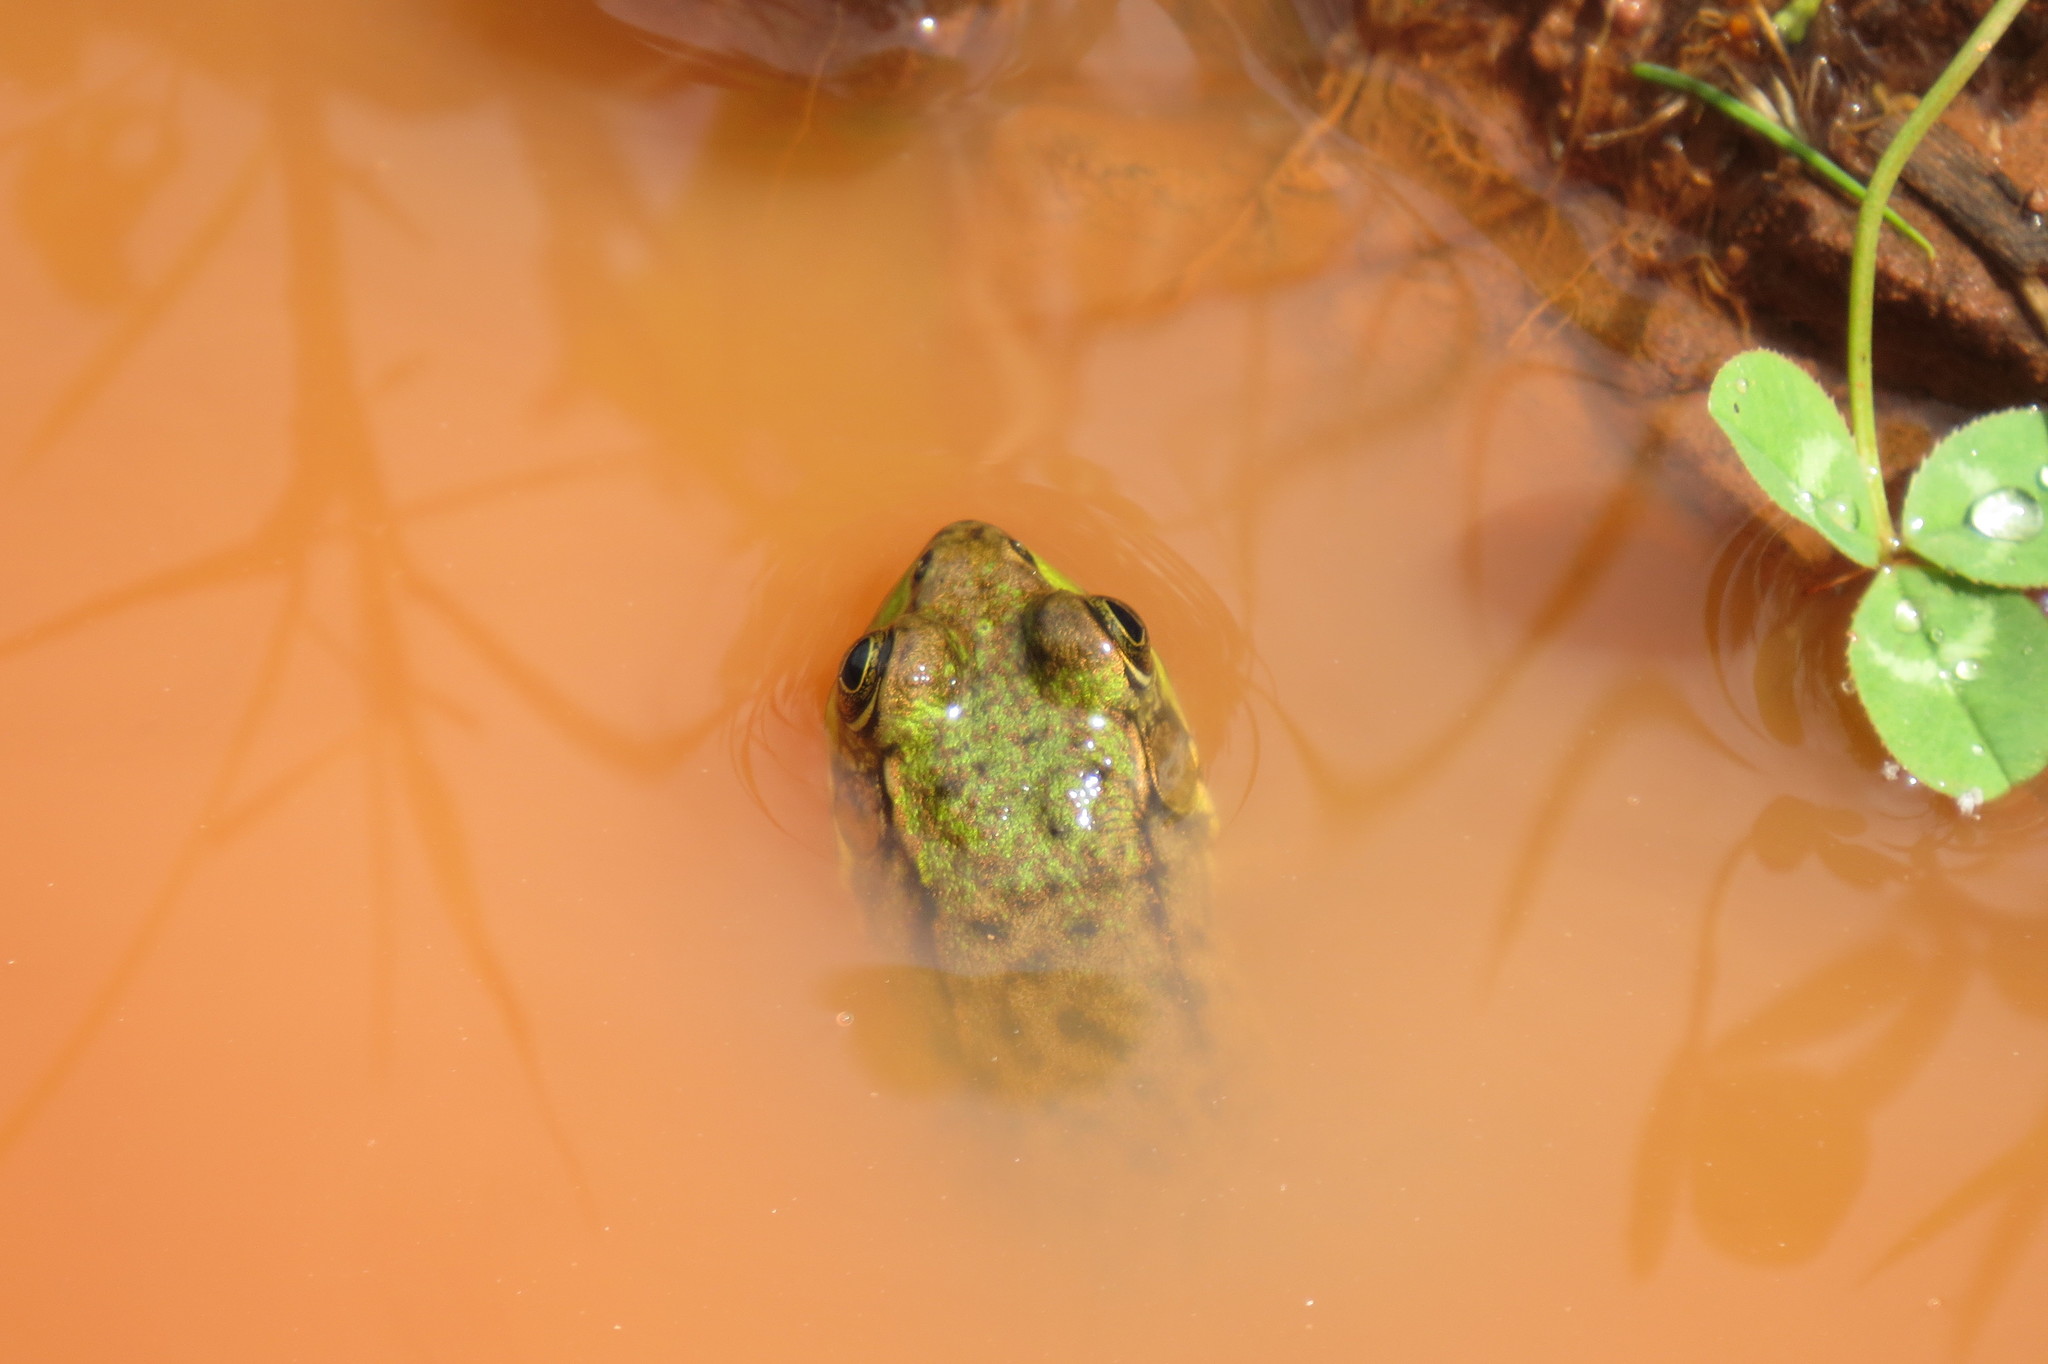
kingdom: Animalia
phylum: Chordata
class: Amphibia
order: Anura
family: Ranidae
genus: Lithobates
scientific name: Lithobates clamitans
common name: Green frog
